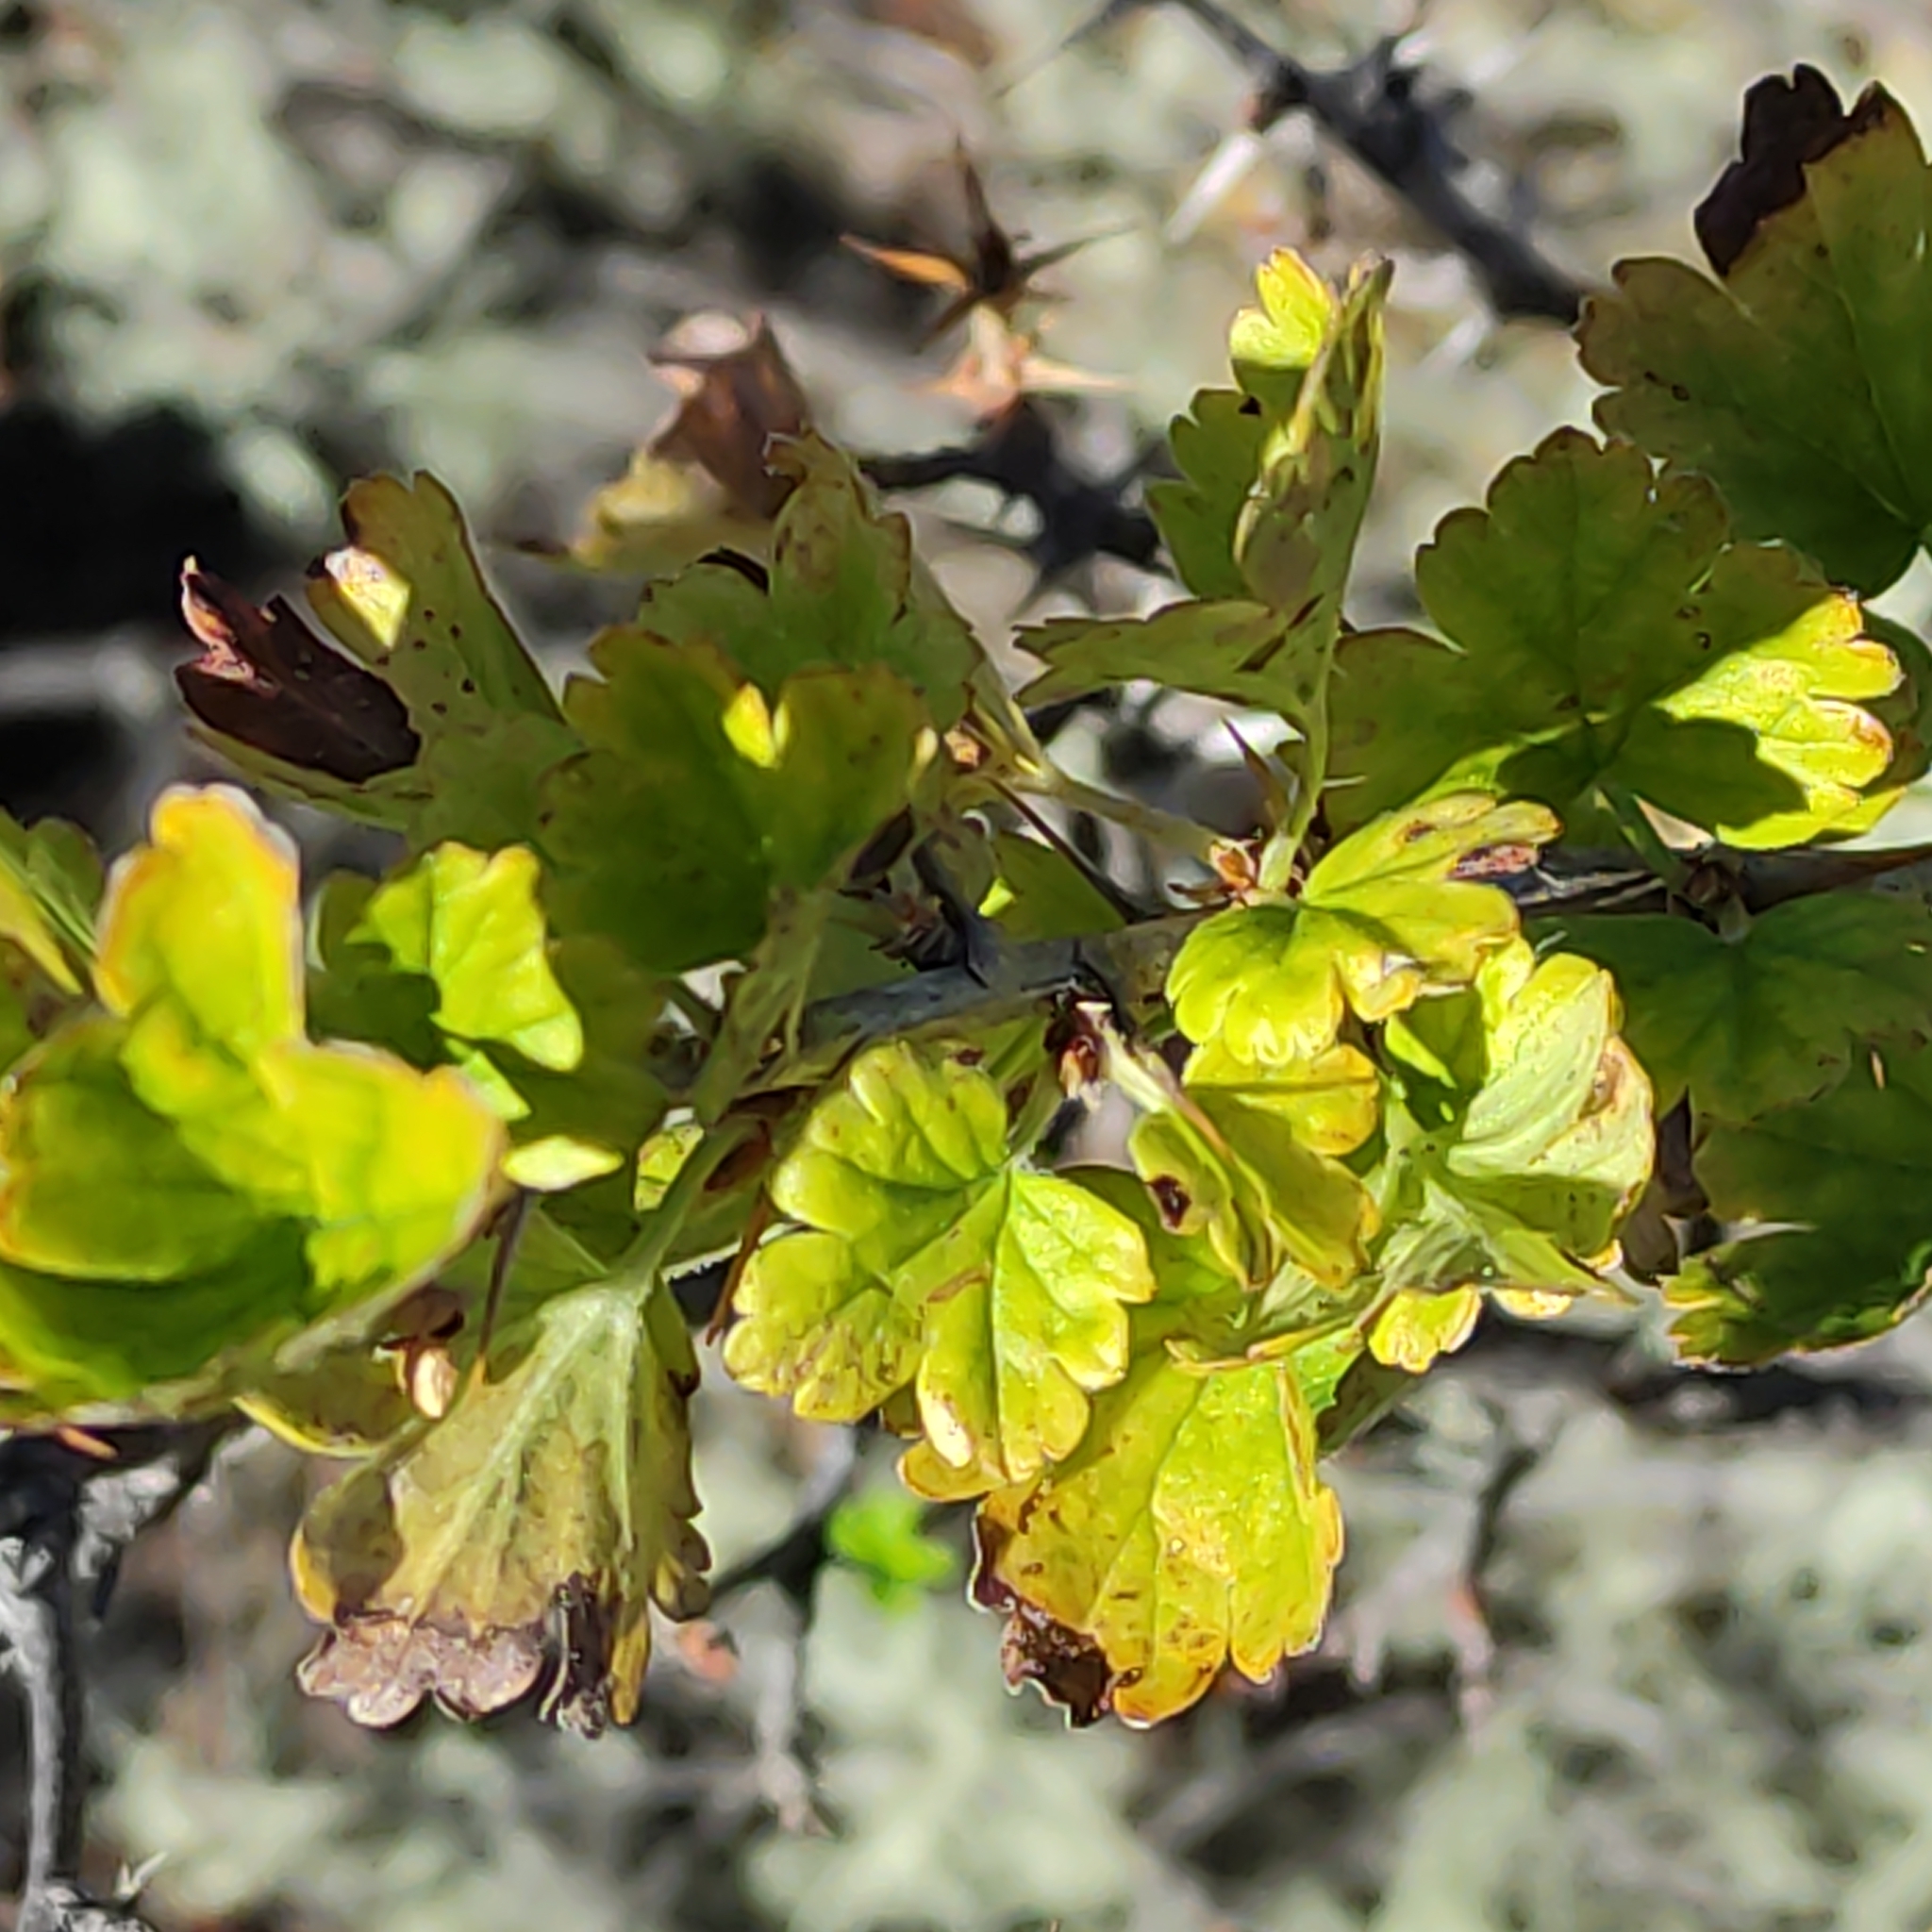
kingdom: Plantae
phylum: Tracheophyta
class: Magnoliopsida
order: Saxifragales
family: Grossulariaceae
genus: Ribes
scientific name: Ribes uva-crispa
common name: Gooseberry
